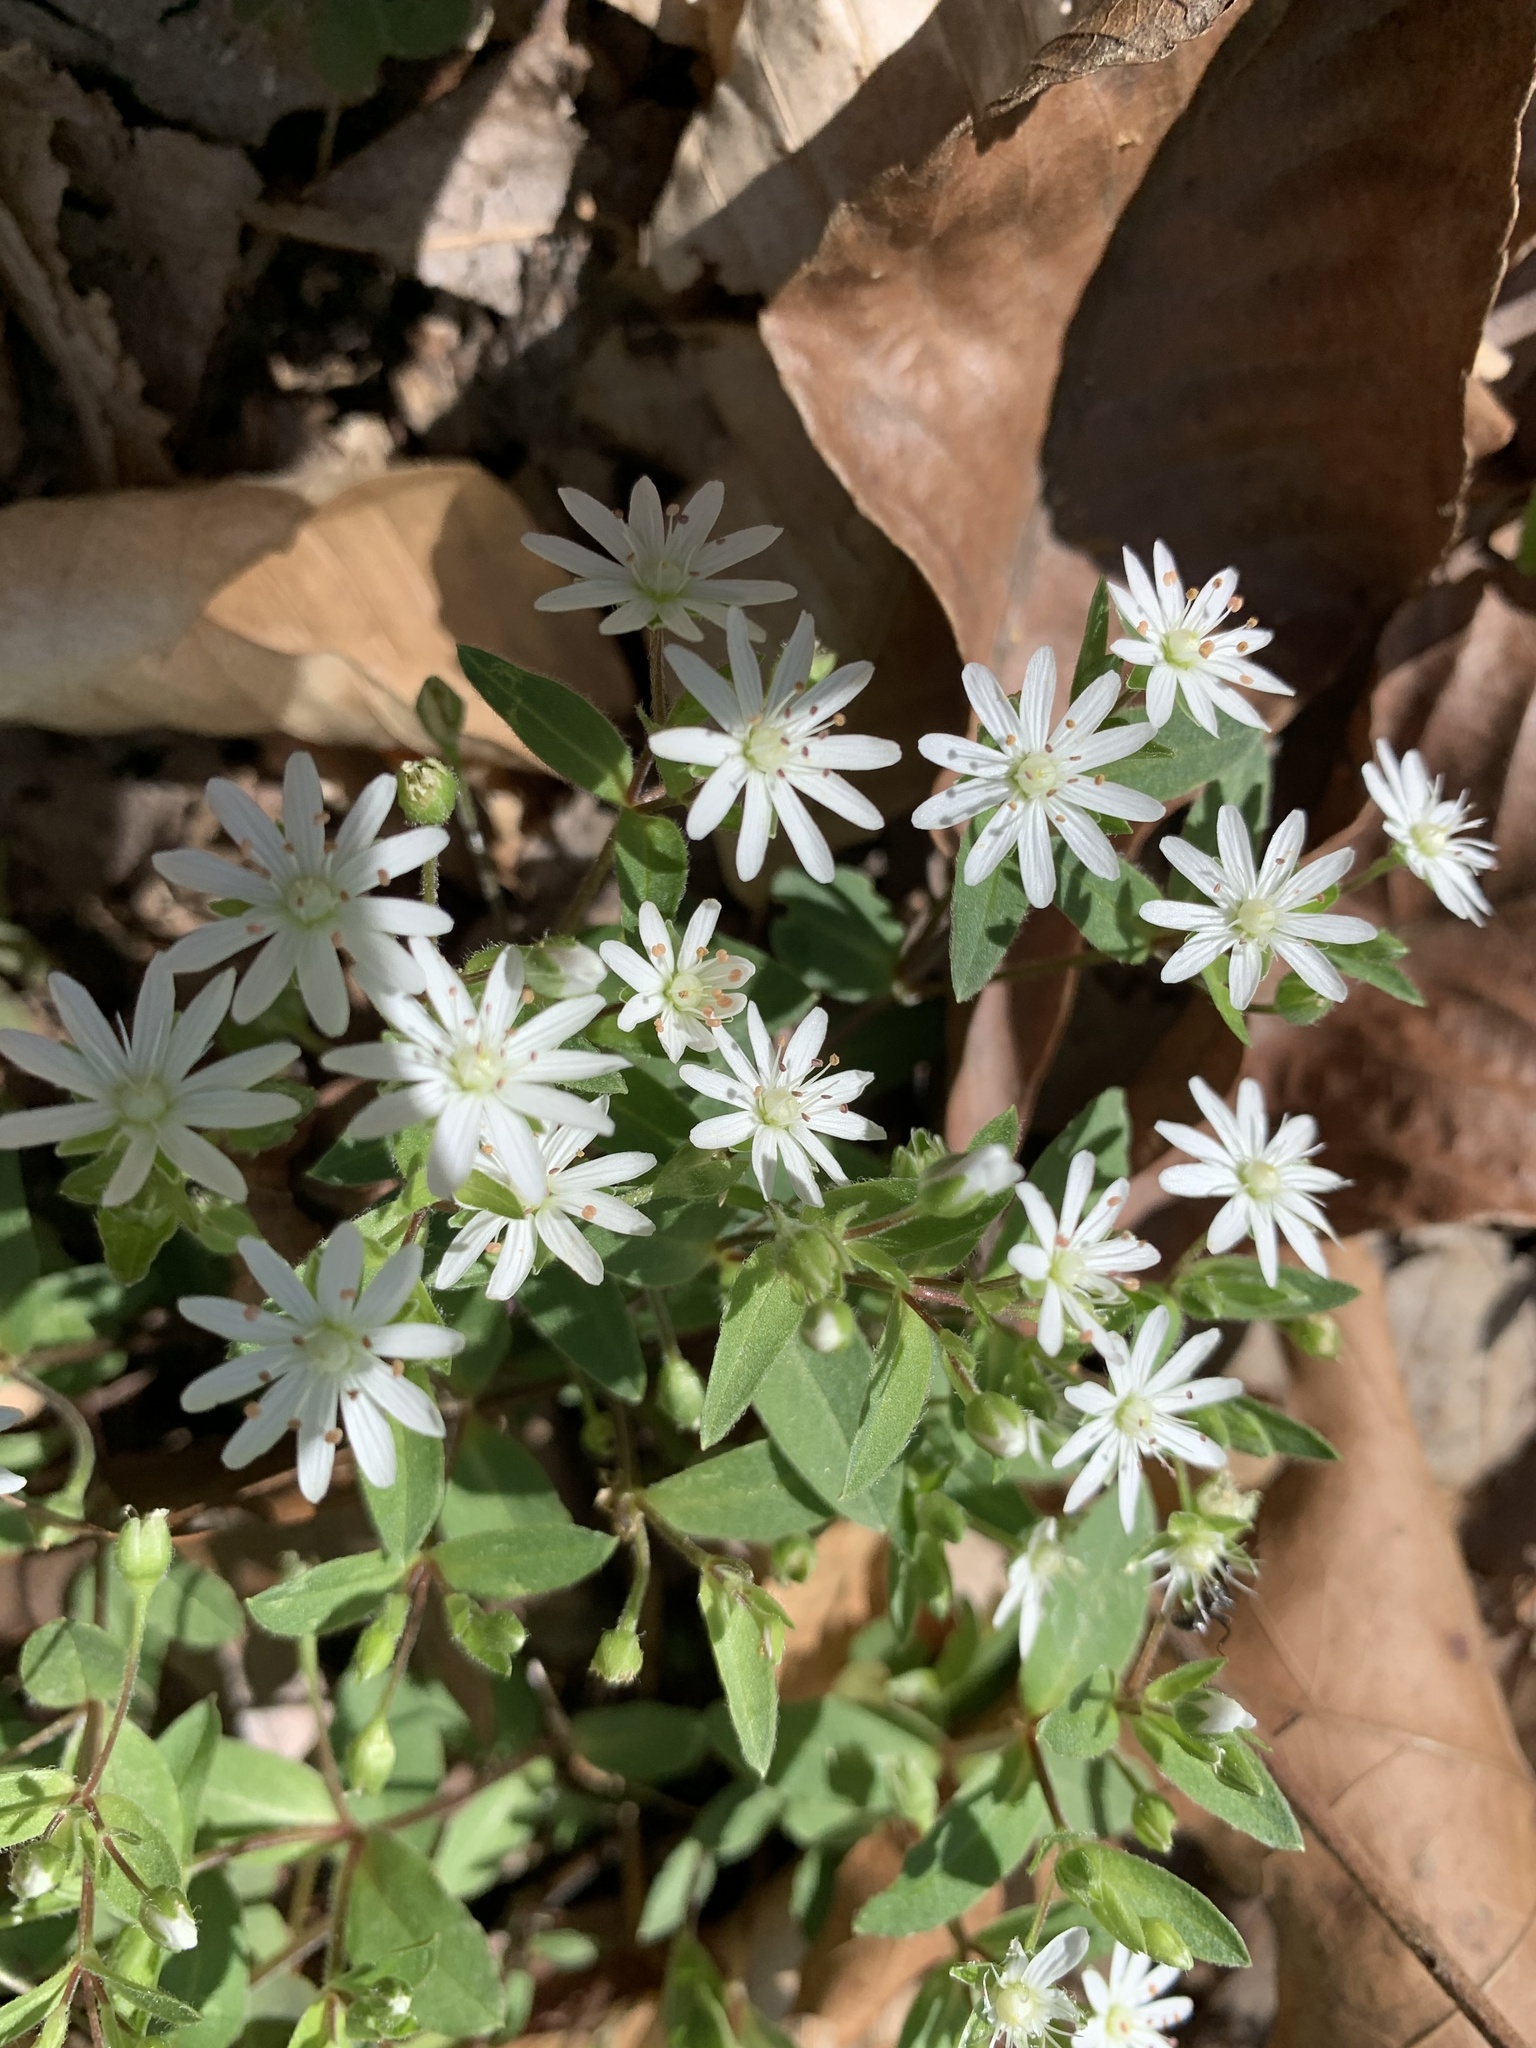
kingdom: Plantae
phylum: Tracheophyta
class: Magnoliopsida
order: Caryophyllales
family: Caryophyllaceae
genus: Stellaria
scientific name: Stellaria pubera
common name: Star chickweed
